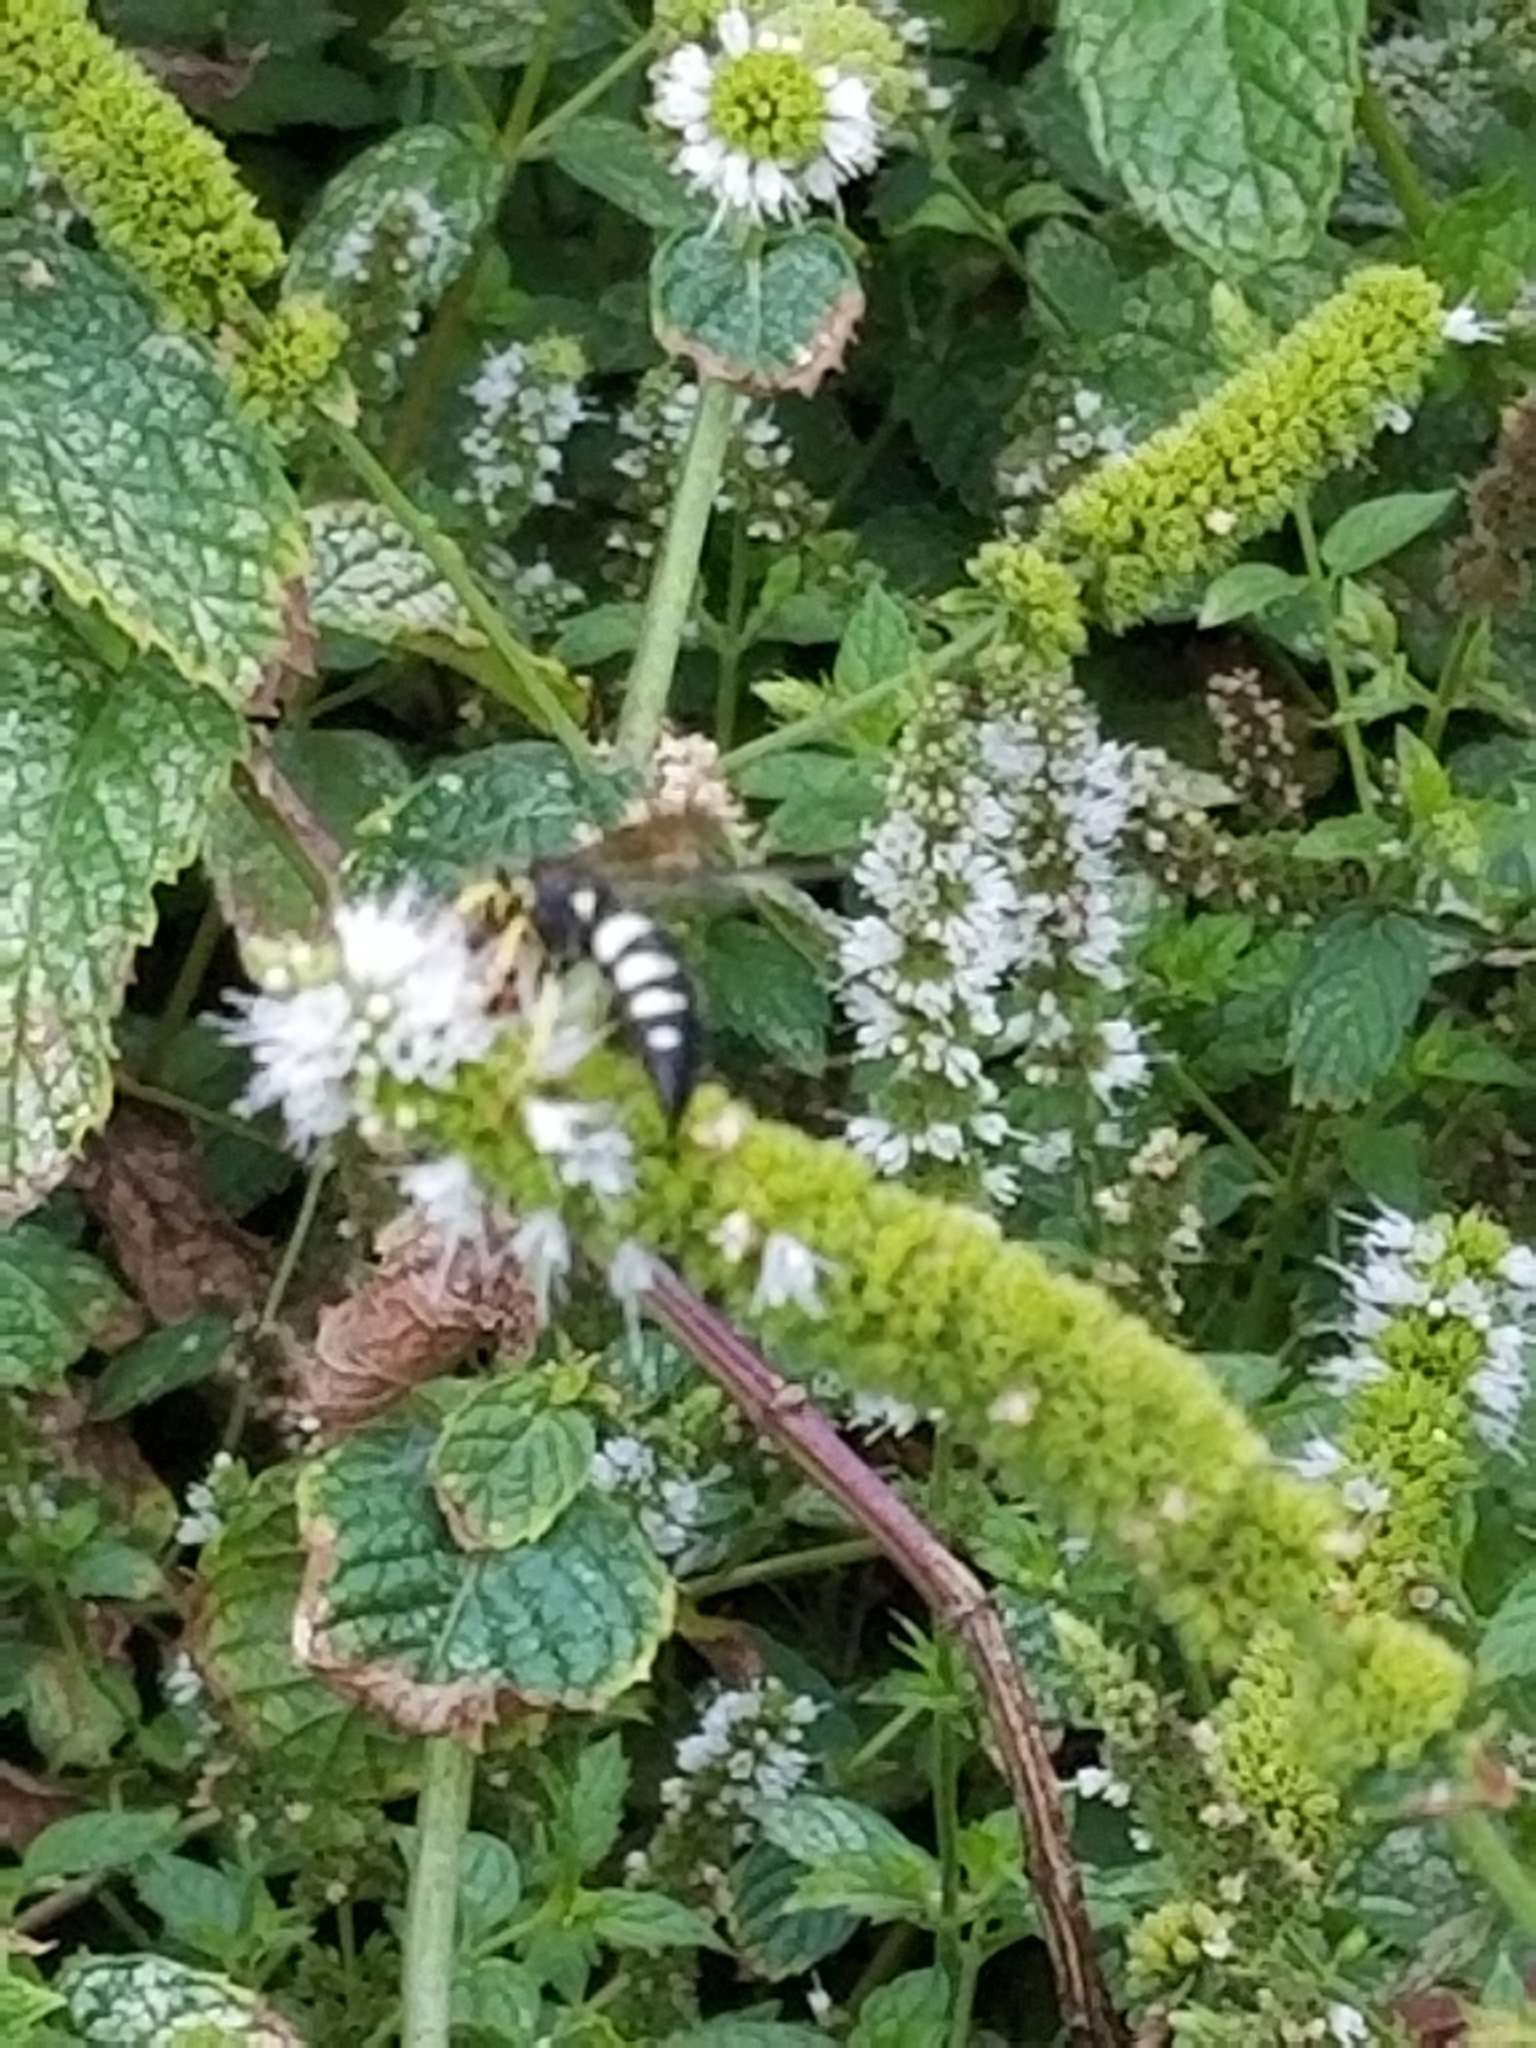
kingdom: Animalia
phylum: Arthropoda
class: Insecta
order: Hymenoptera
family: Crabronidae
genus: Bicyrtes
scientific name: Bicyrtes quadrifasciatus
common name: Four-banded stink bug hunter wasp
